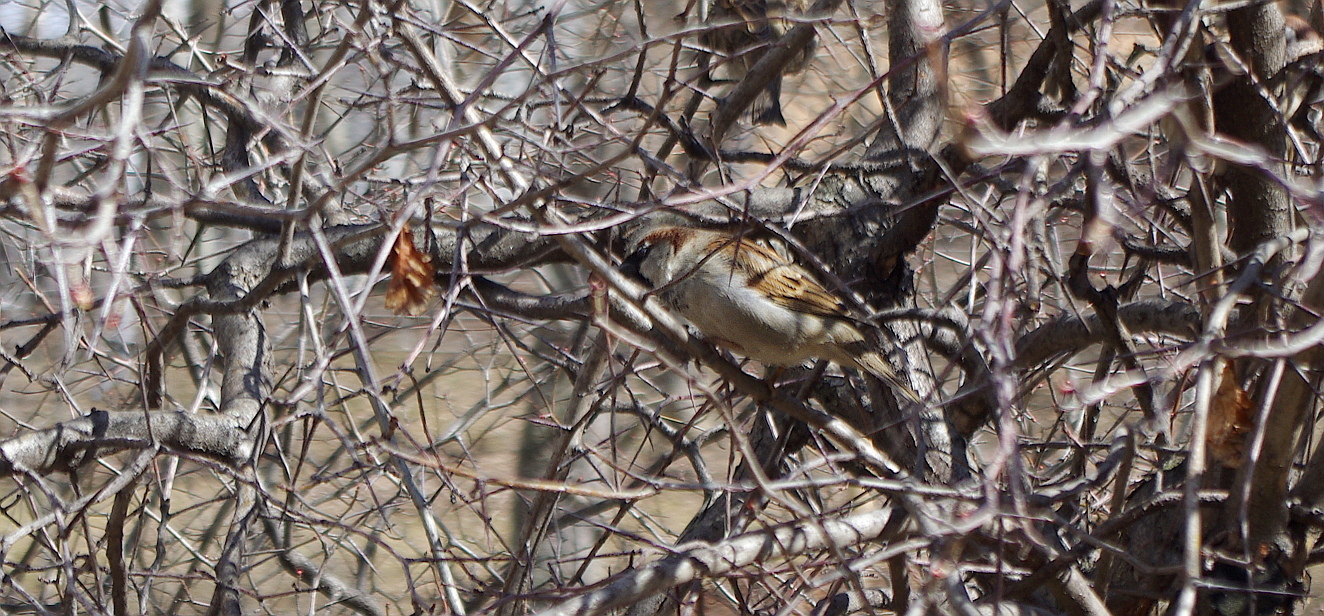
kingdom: Animalia
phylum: Chordata
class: Aves
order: Passeriformes
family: Passeridae
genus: Passer
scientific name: Passer domesticus
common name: House sparrow
